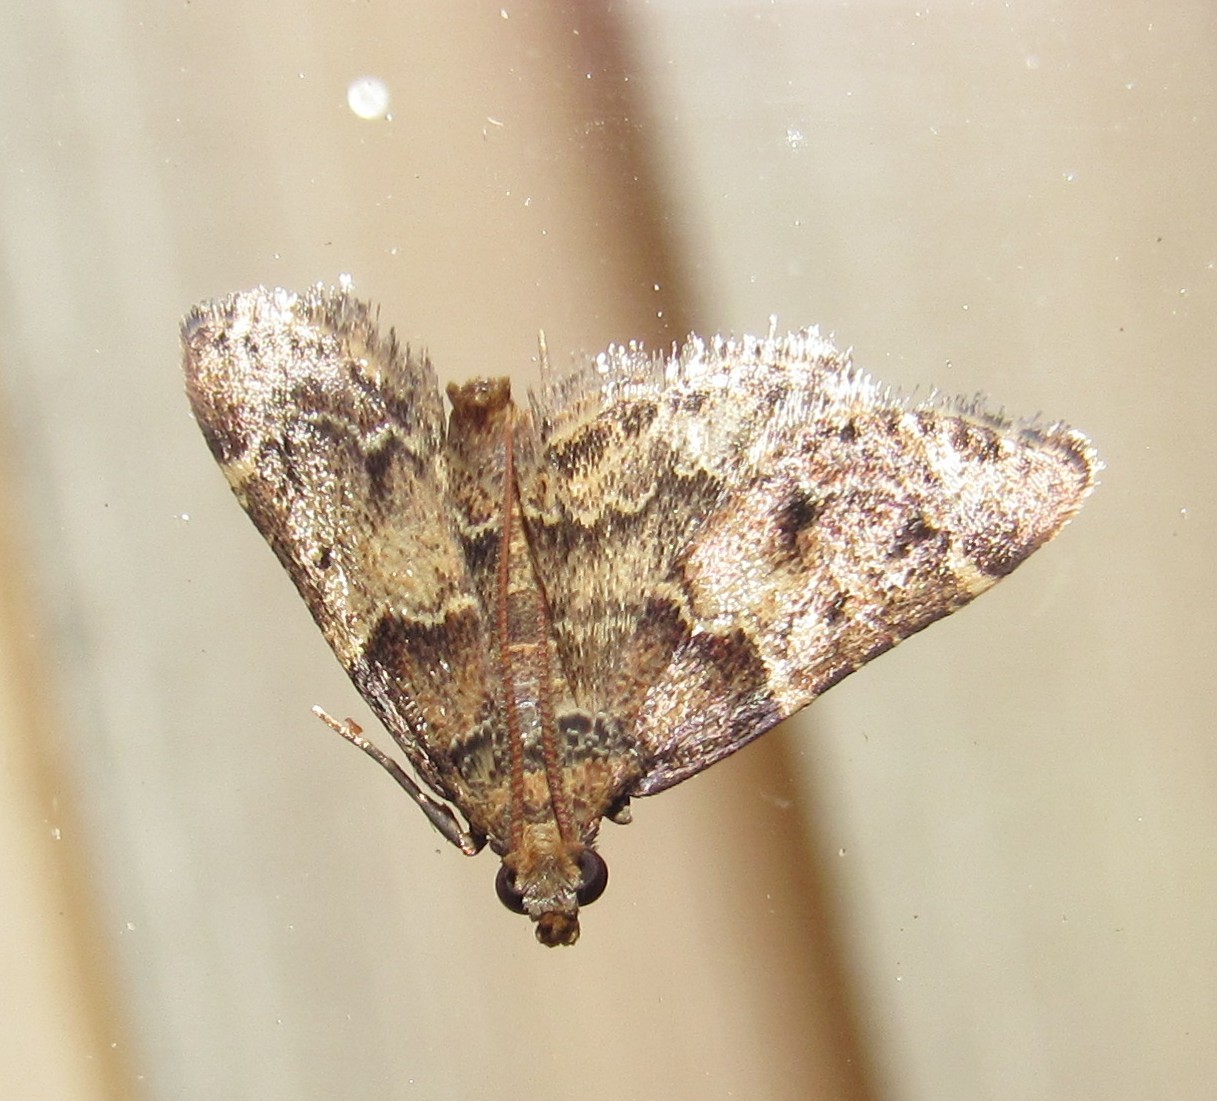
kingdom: Animalia
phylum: Arthropoda
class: Insecta
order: Lepidoptera
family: Pyralidae
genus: Pyralis
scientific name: Pyralis manihotalis
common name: Moth
